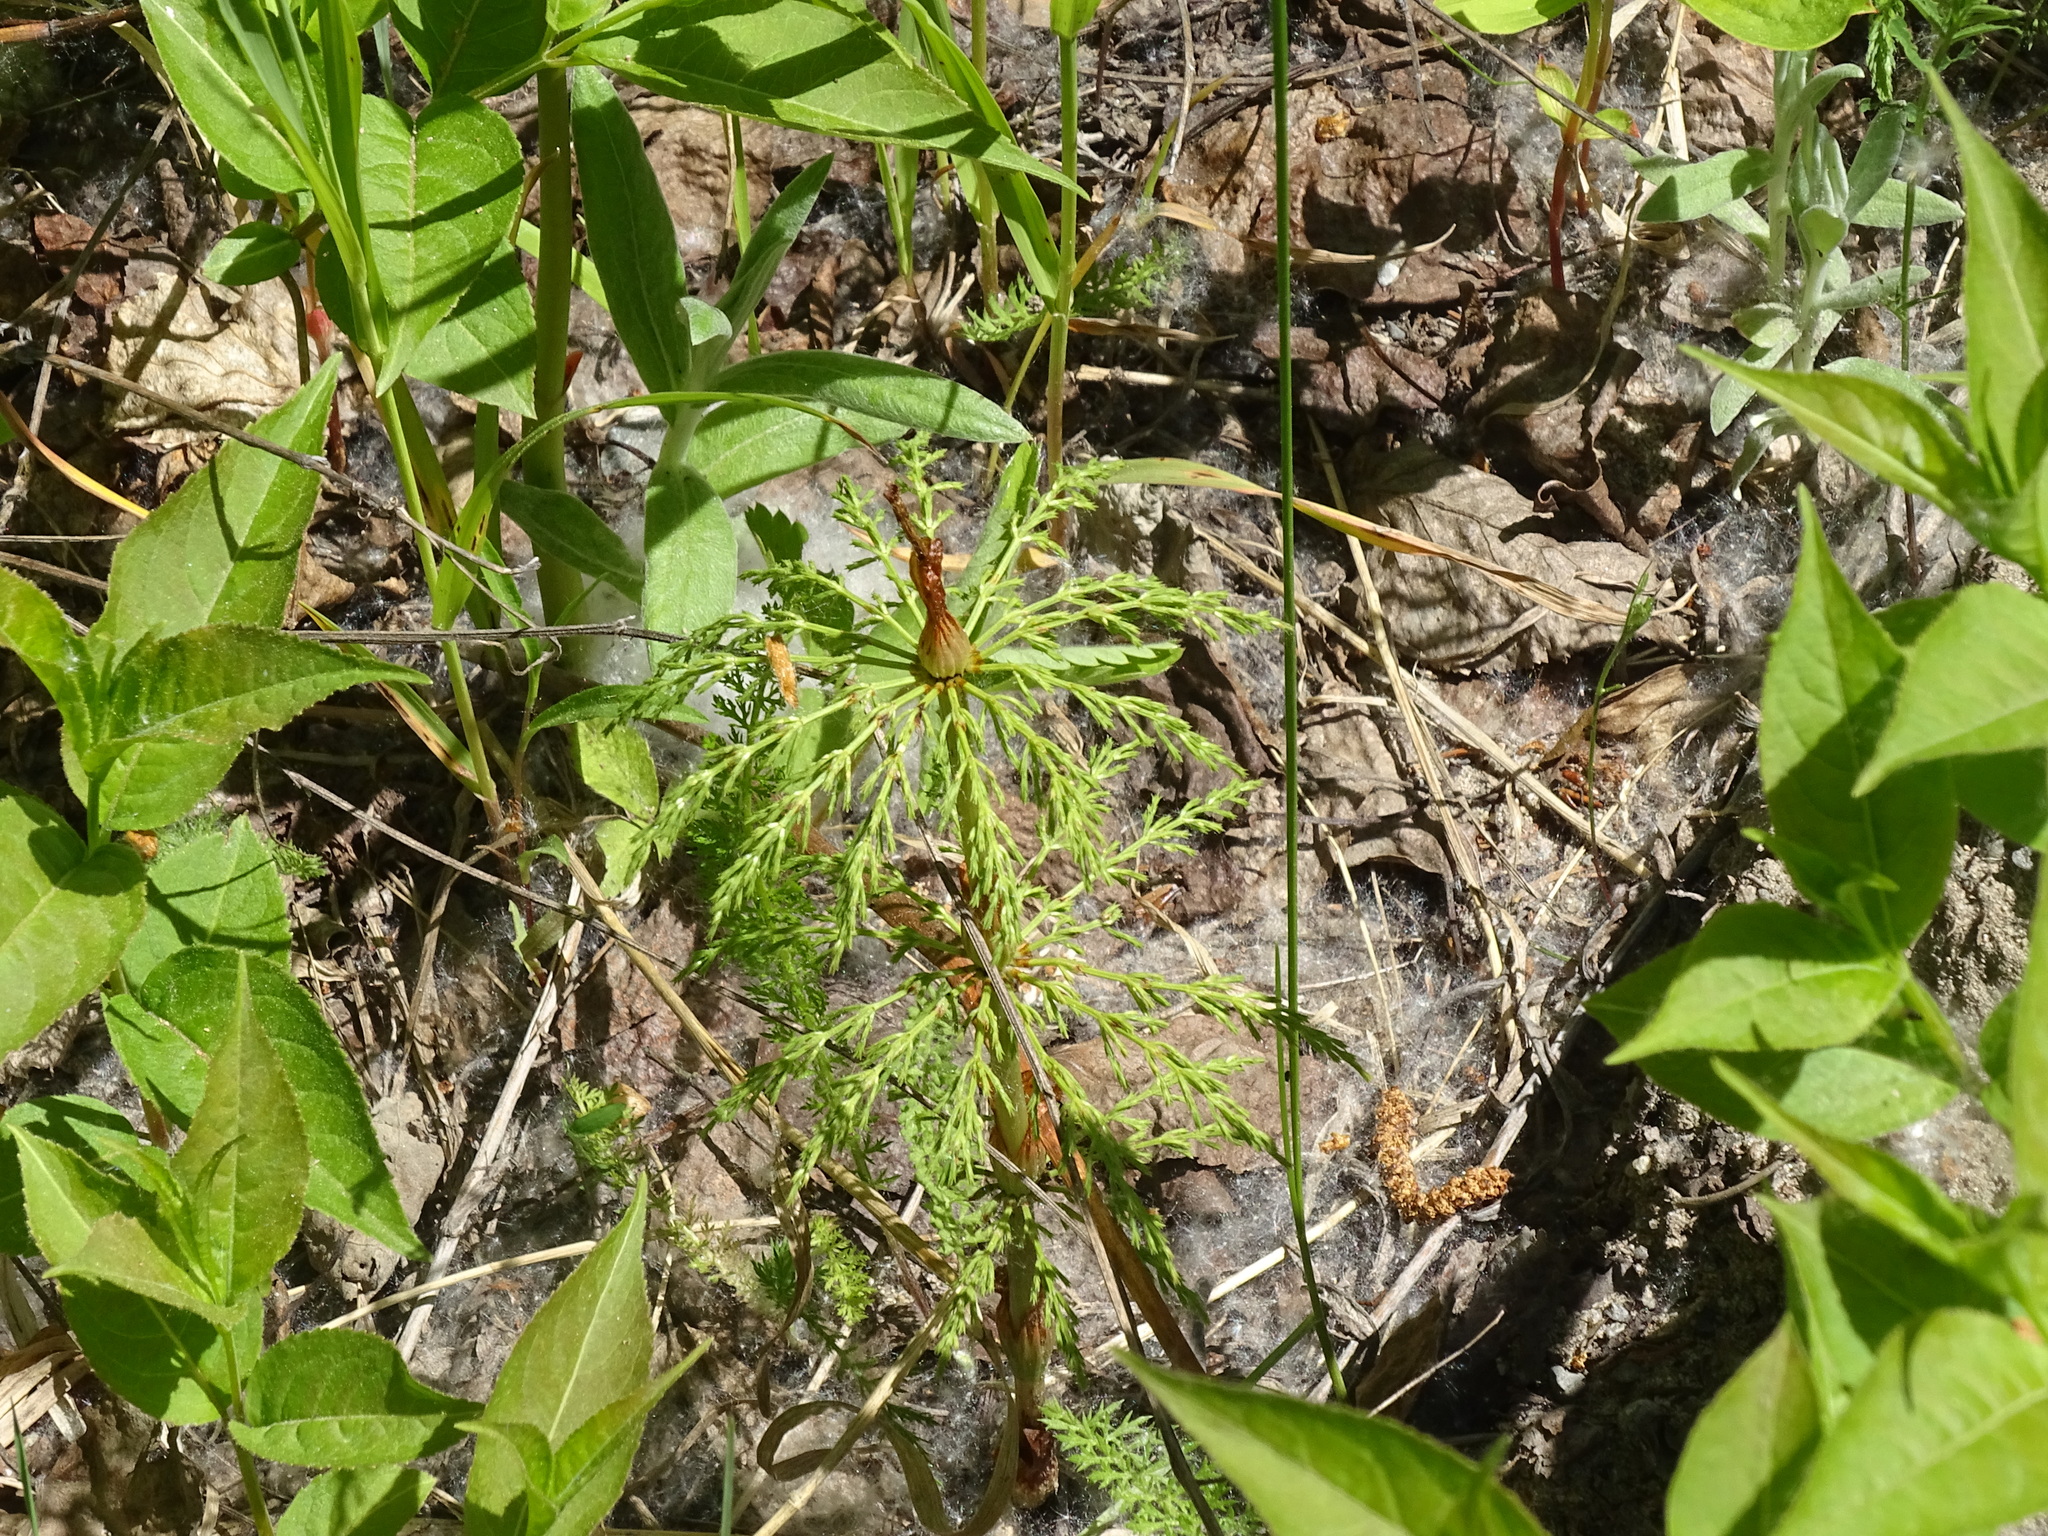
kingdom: Plantae
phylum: Tracheophyta
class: Polypodiopsida
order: Equisetales
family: Equisetaceae
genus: Equisetum
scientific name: Equisetum sylvaticum
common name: Wood horsetail
